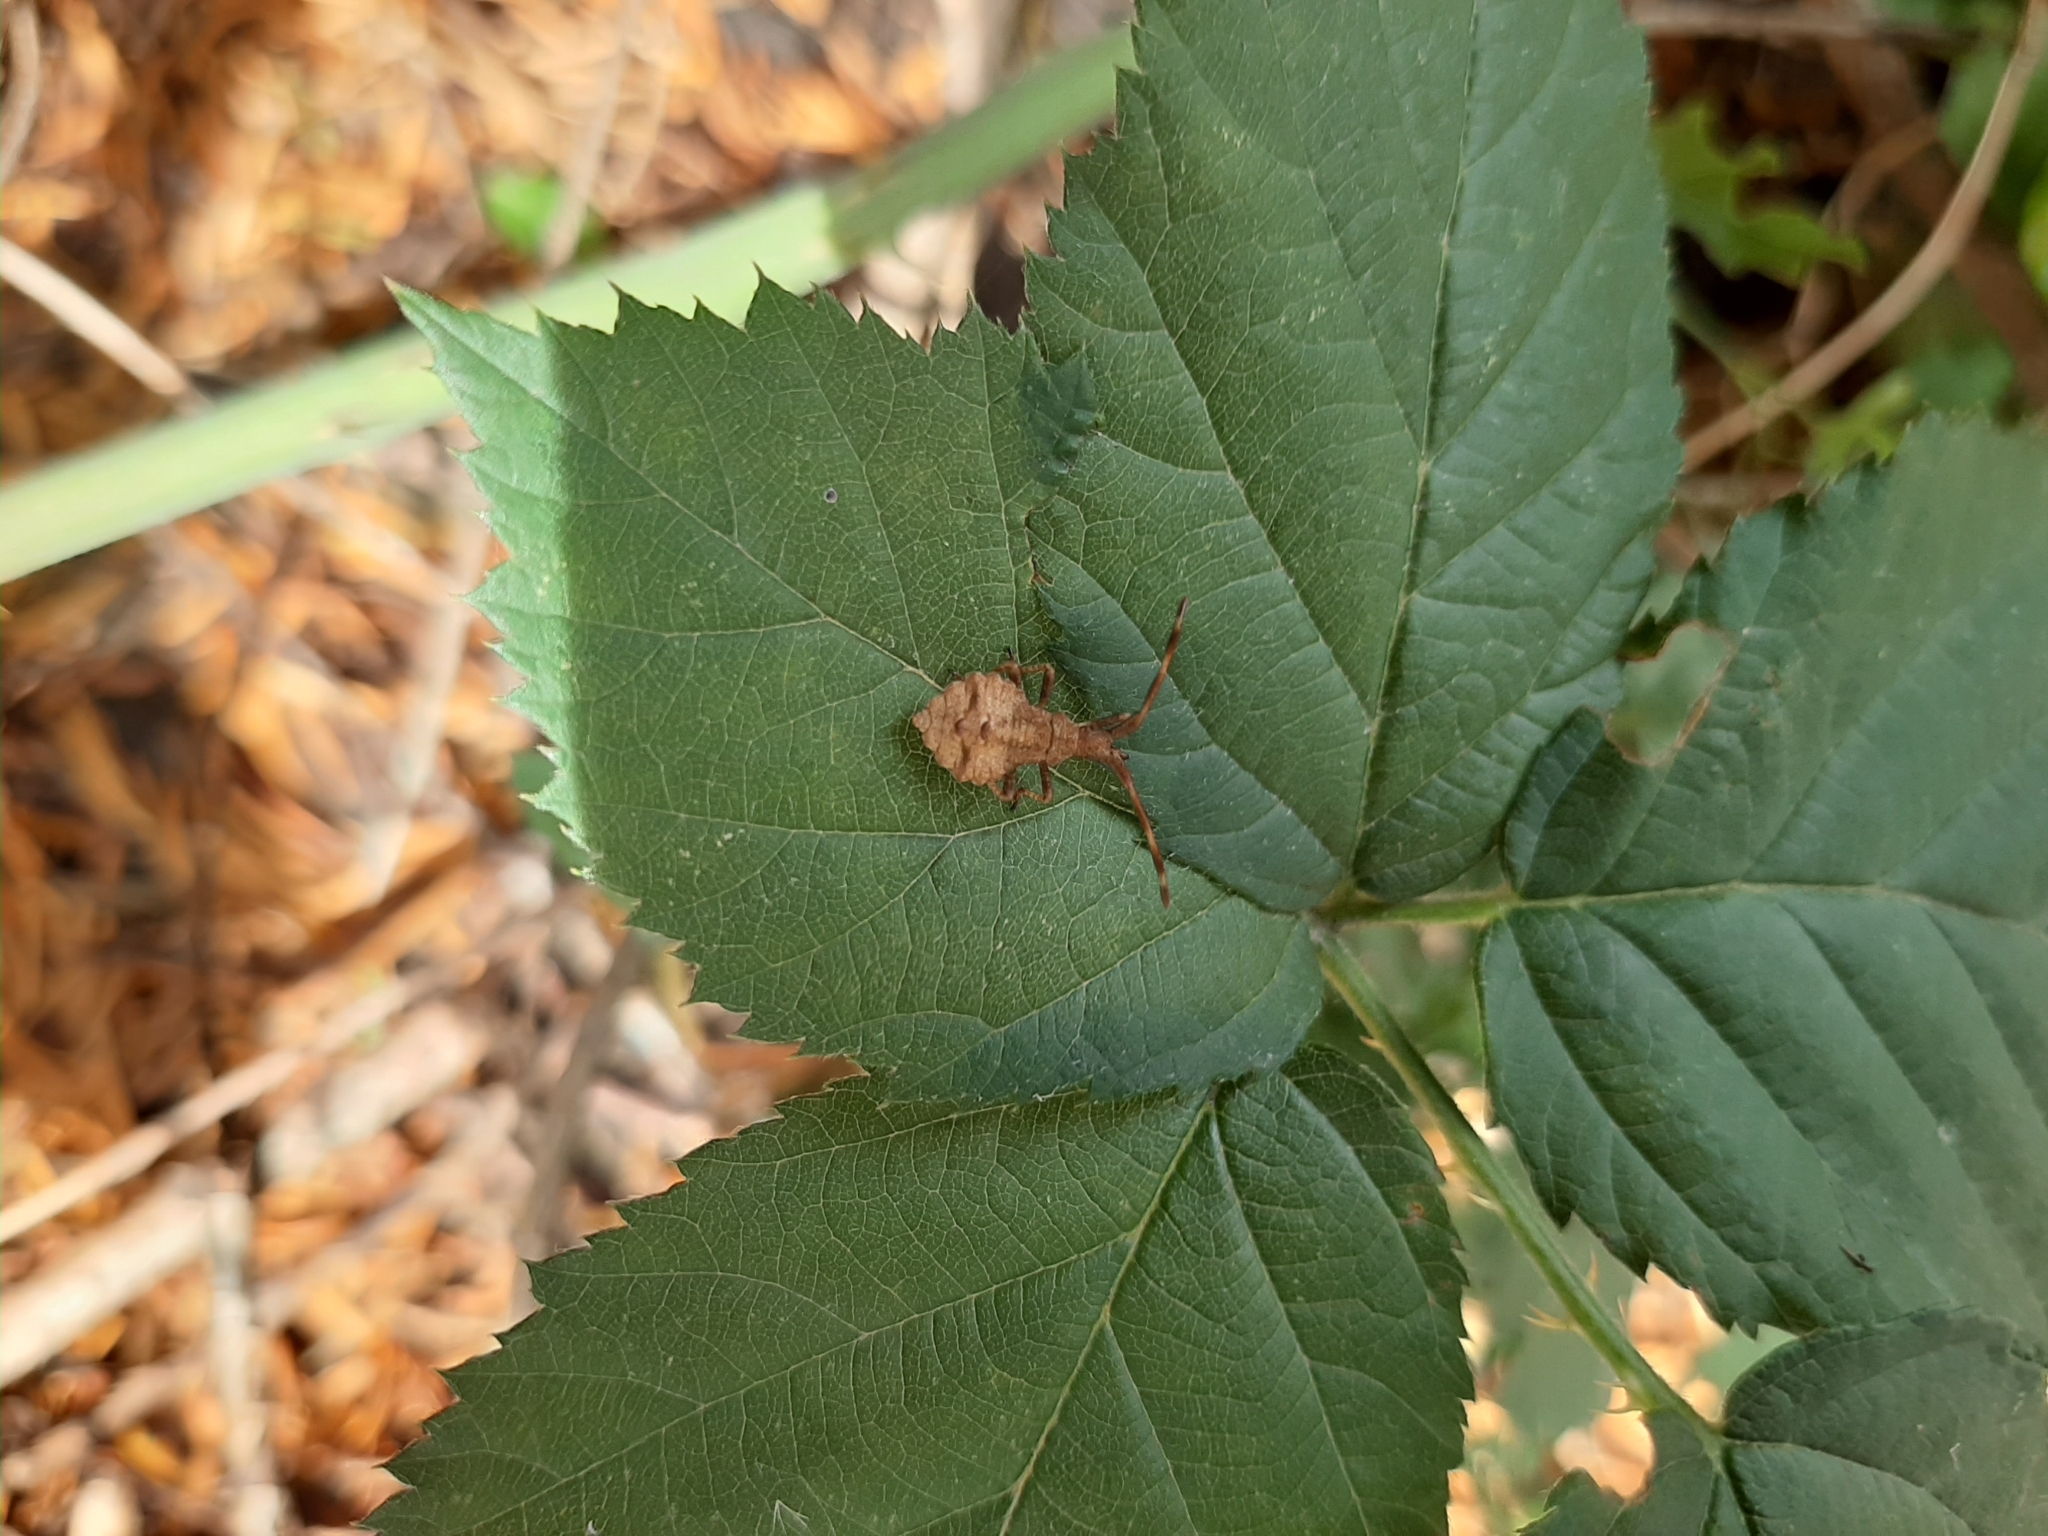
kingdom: Animalia
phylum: Arthropoda
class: Insecta
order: Hemiptera
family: Coreidae
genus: Coreus
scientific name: Coreus marginatus
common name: Dock bug
